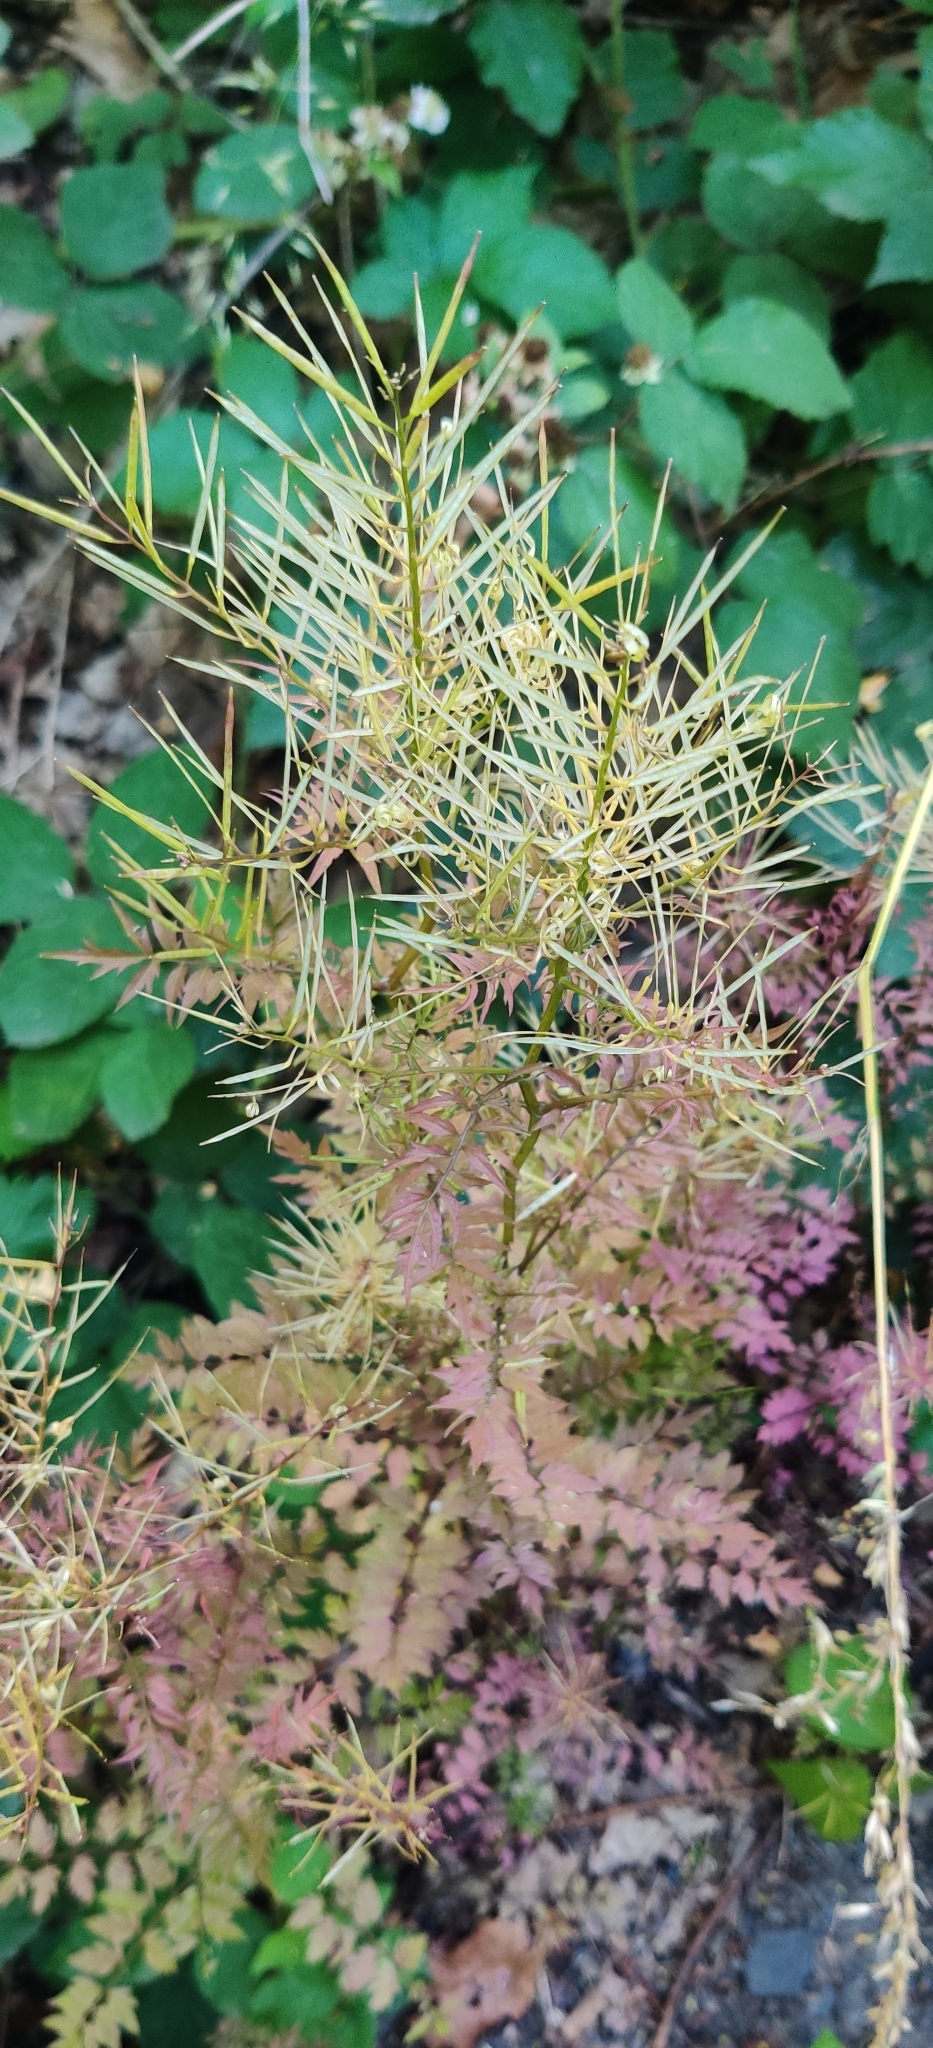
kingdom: Plantae
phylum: Tracheophyta
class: Magnoliopsida
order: Brassicales
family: Brassicaceae
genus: Cardamine
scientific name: Cardamine impatiens
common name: Narrow-leaved bitter-cress
